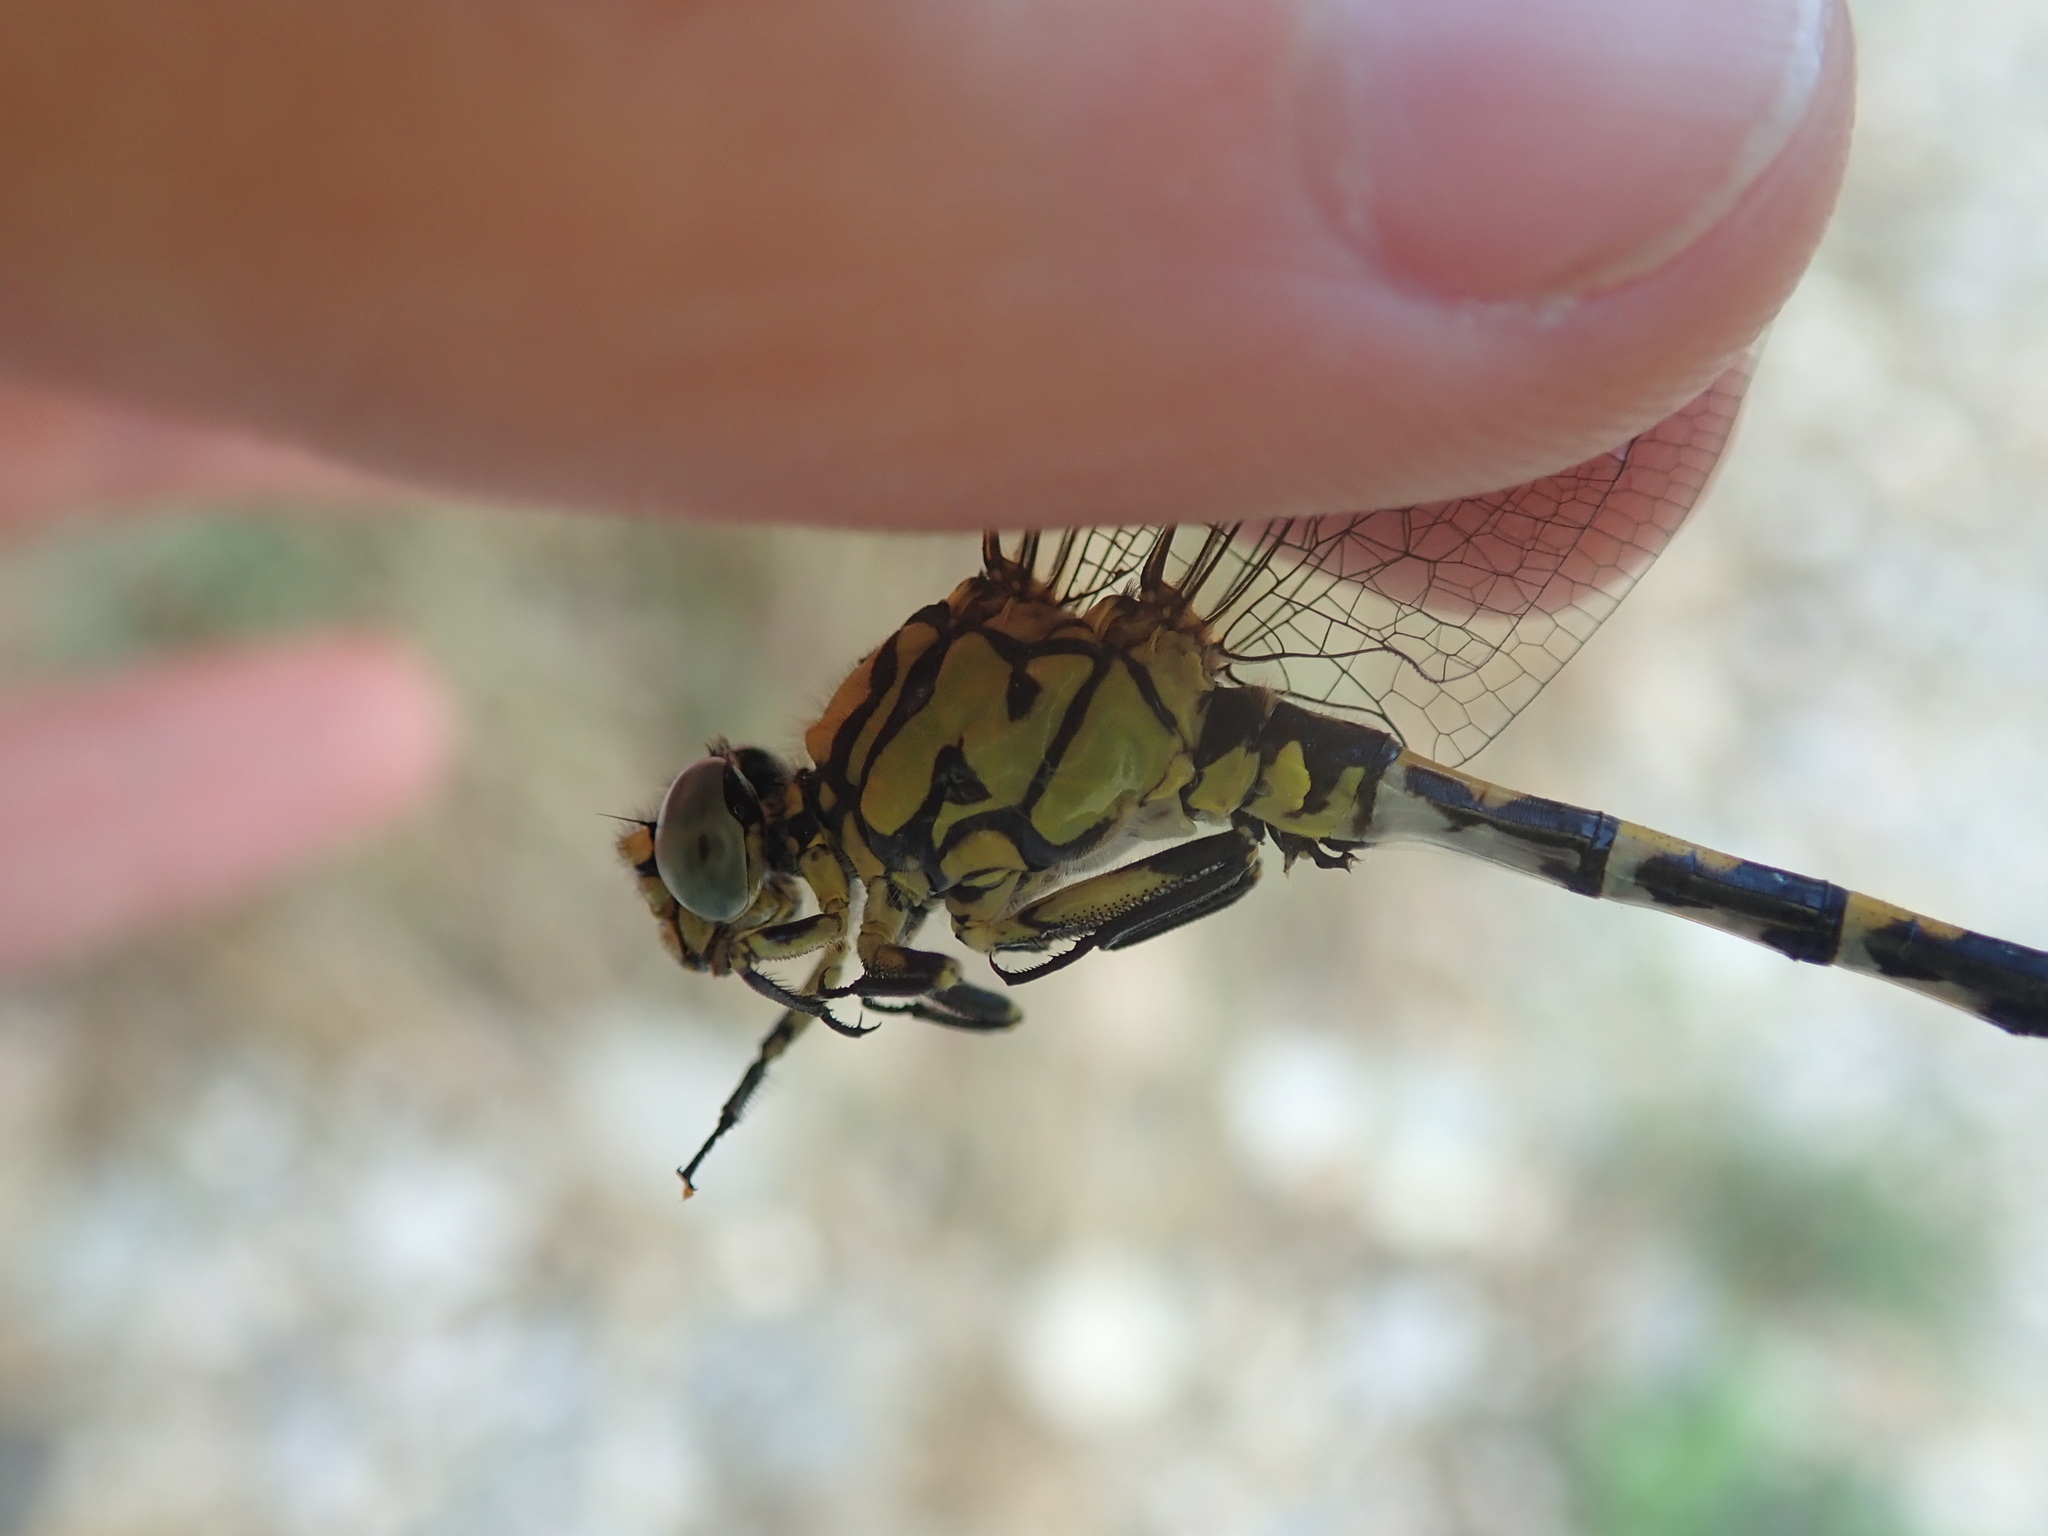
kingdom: Animalia
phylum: Arthropoda
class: Insecta
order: Odonata
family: Gomphidae
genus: Onychogomphus
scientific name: Onychogomphus forcipatus
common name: Small pincertail
